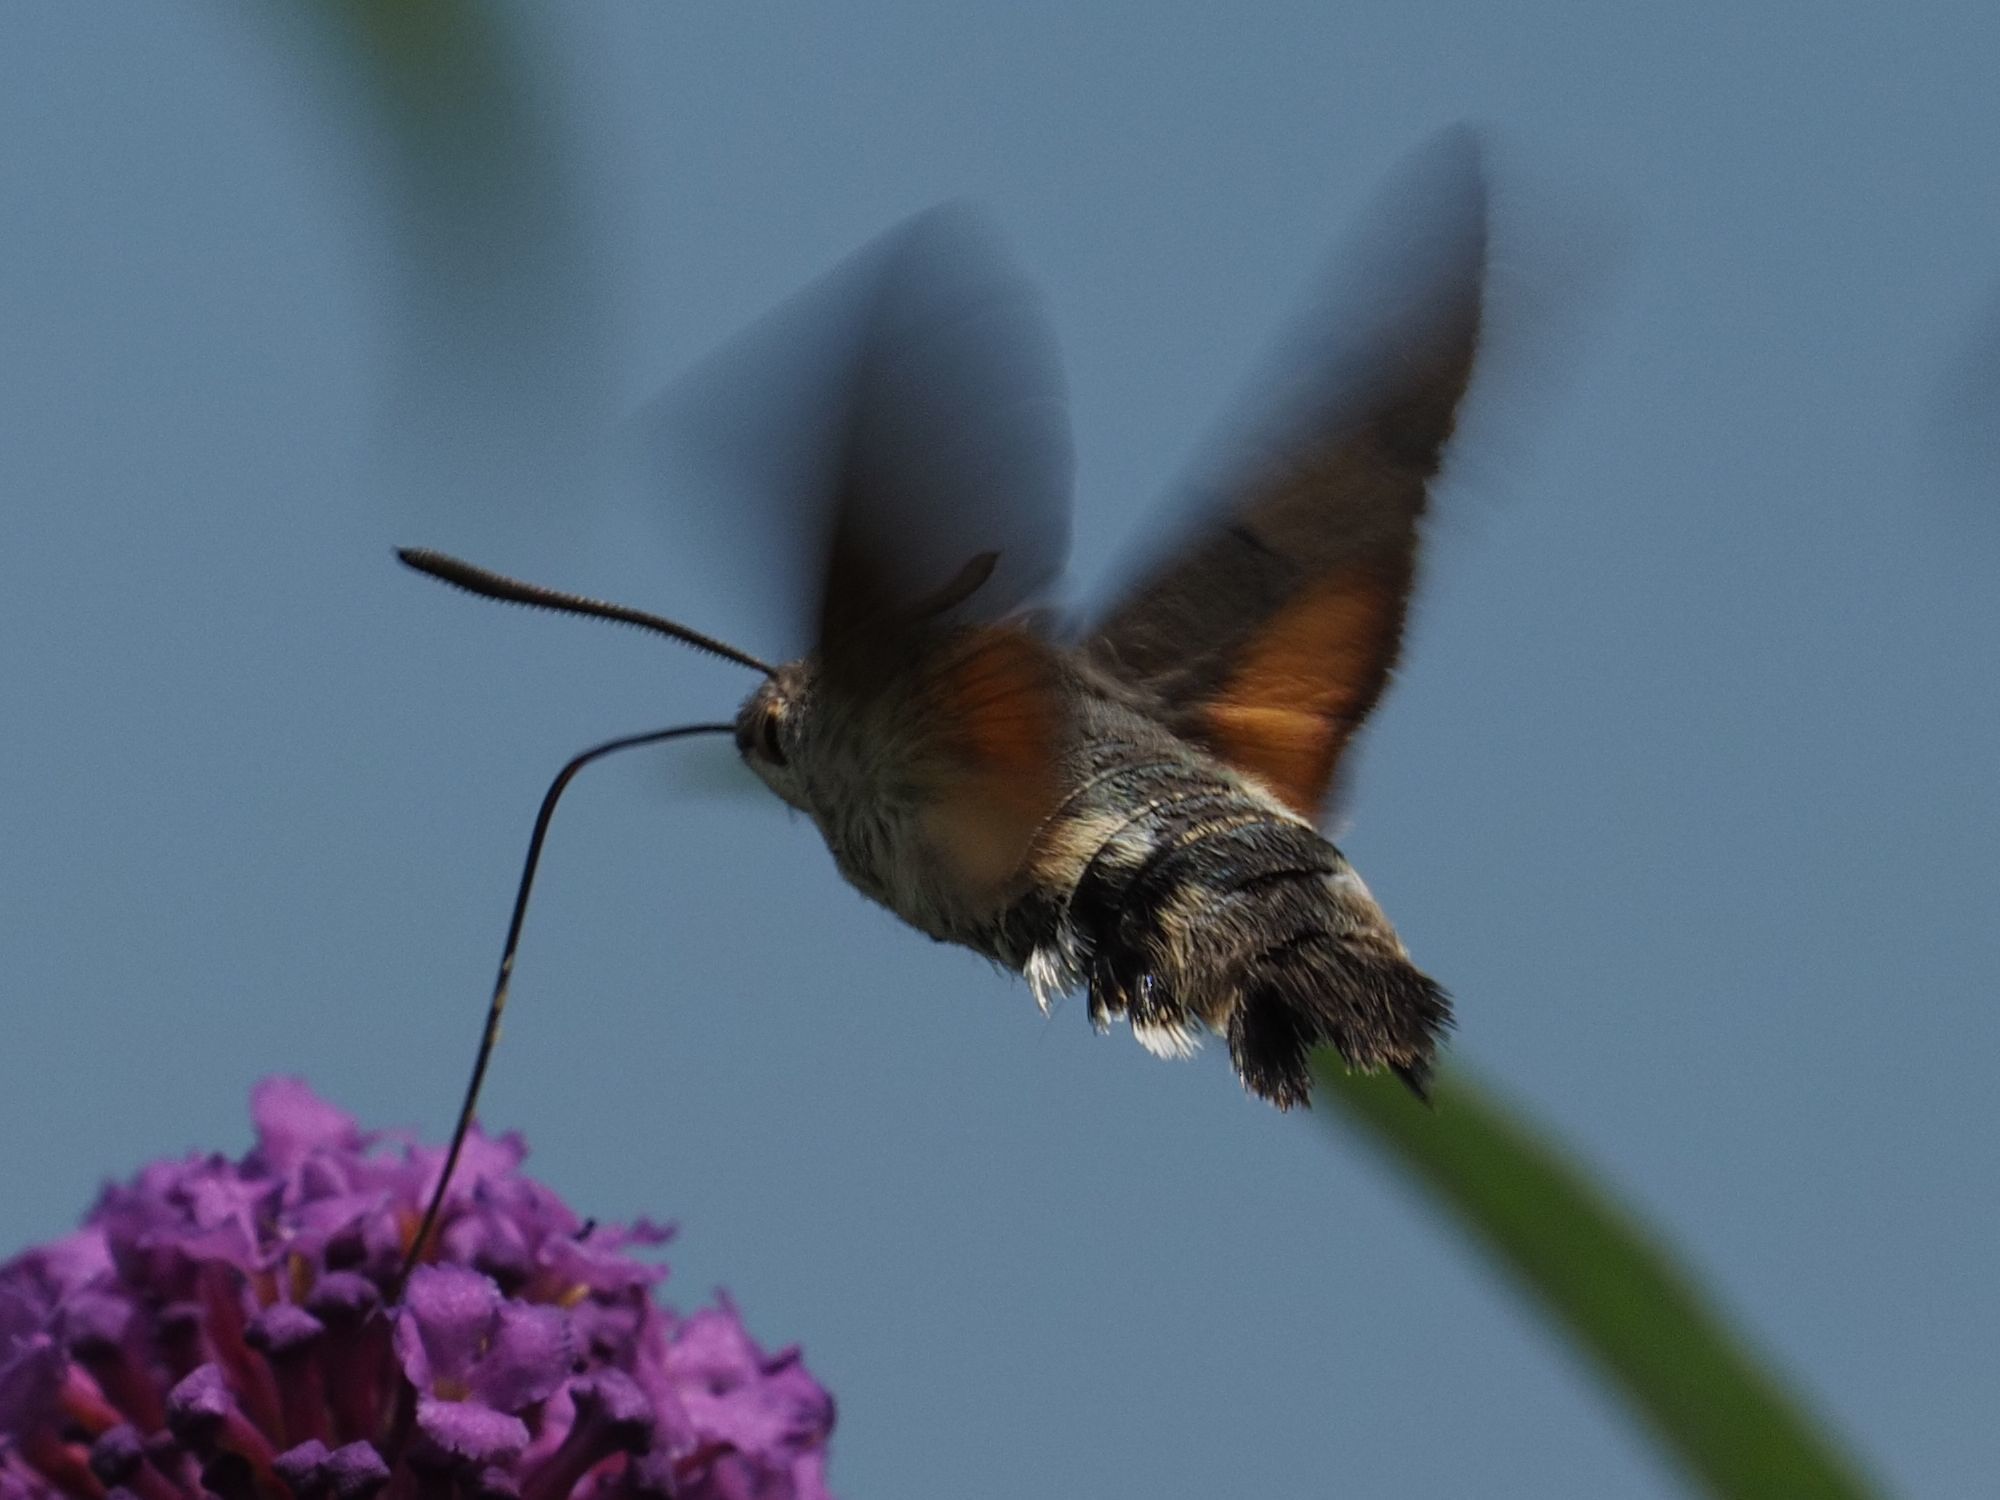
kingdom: Animalia
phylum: Arthropoda
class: Insecta
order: Lepidoptera
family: Sphingidae
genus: Macroglossum
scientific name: Macroglossum stellatarum
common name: Humming-bird hawk-moth
